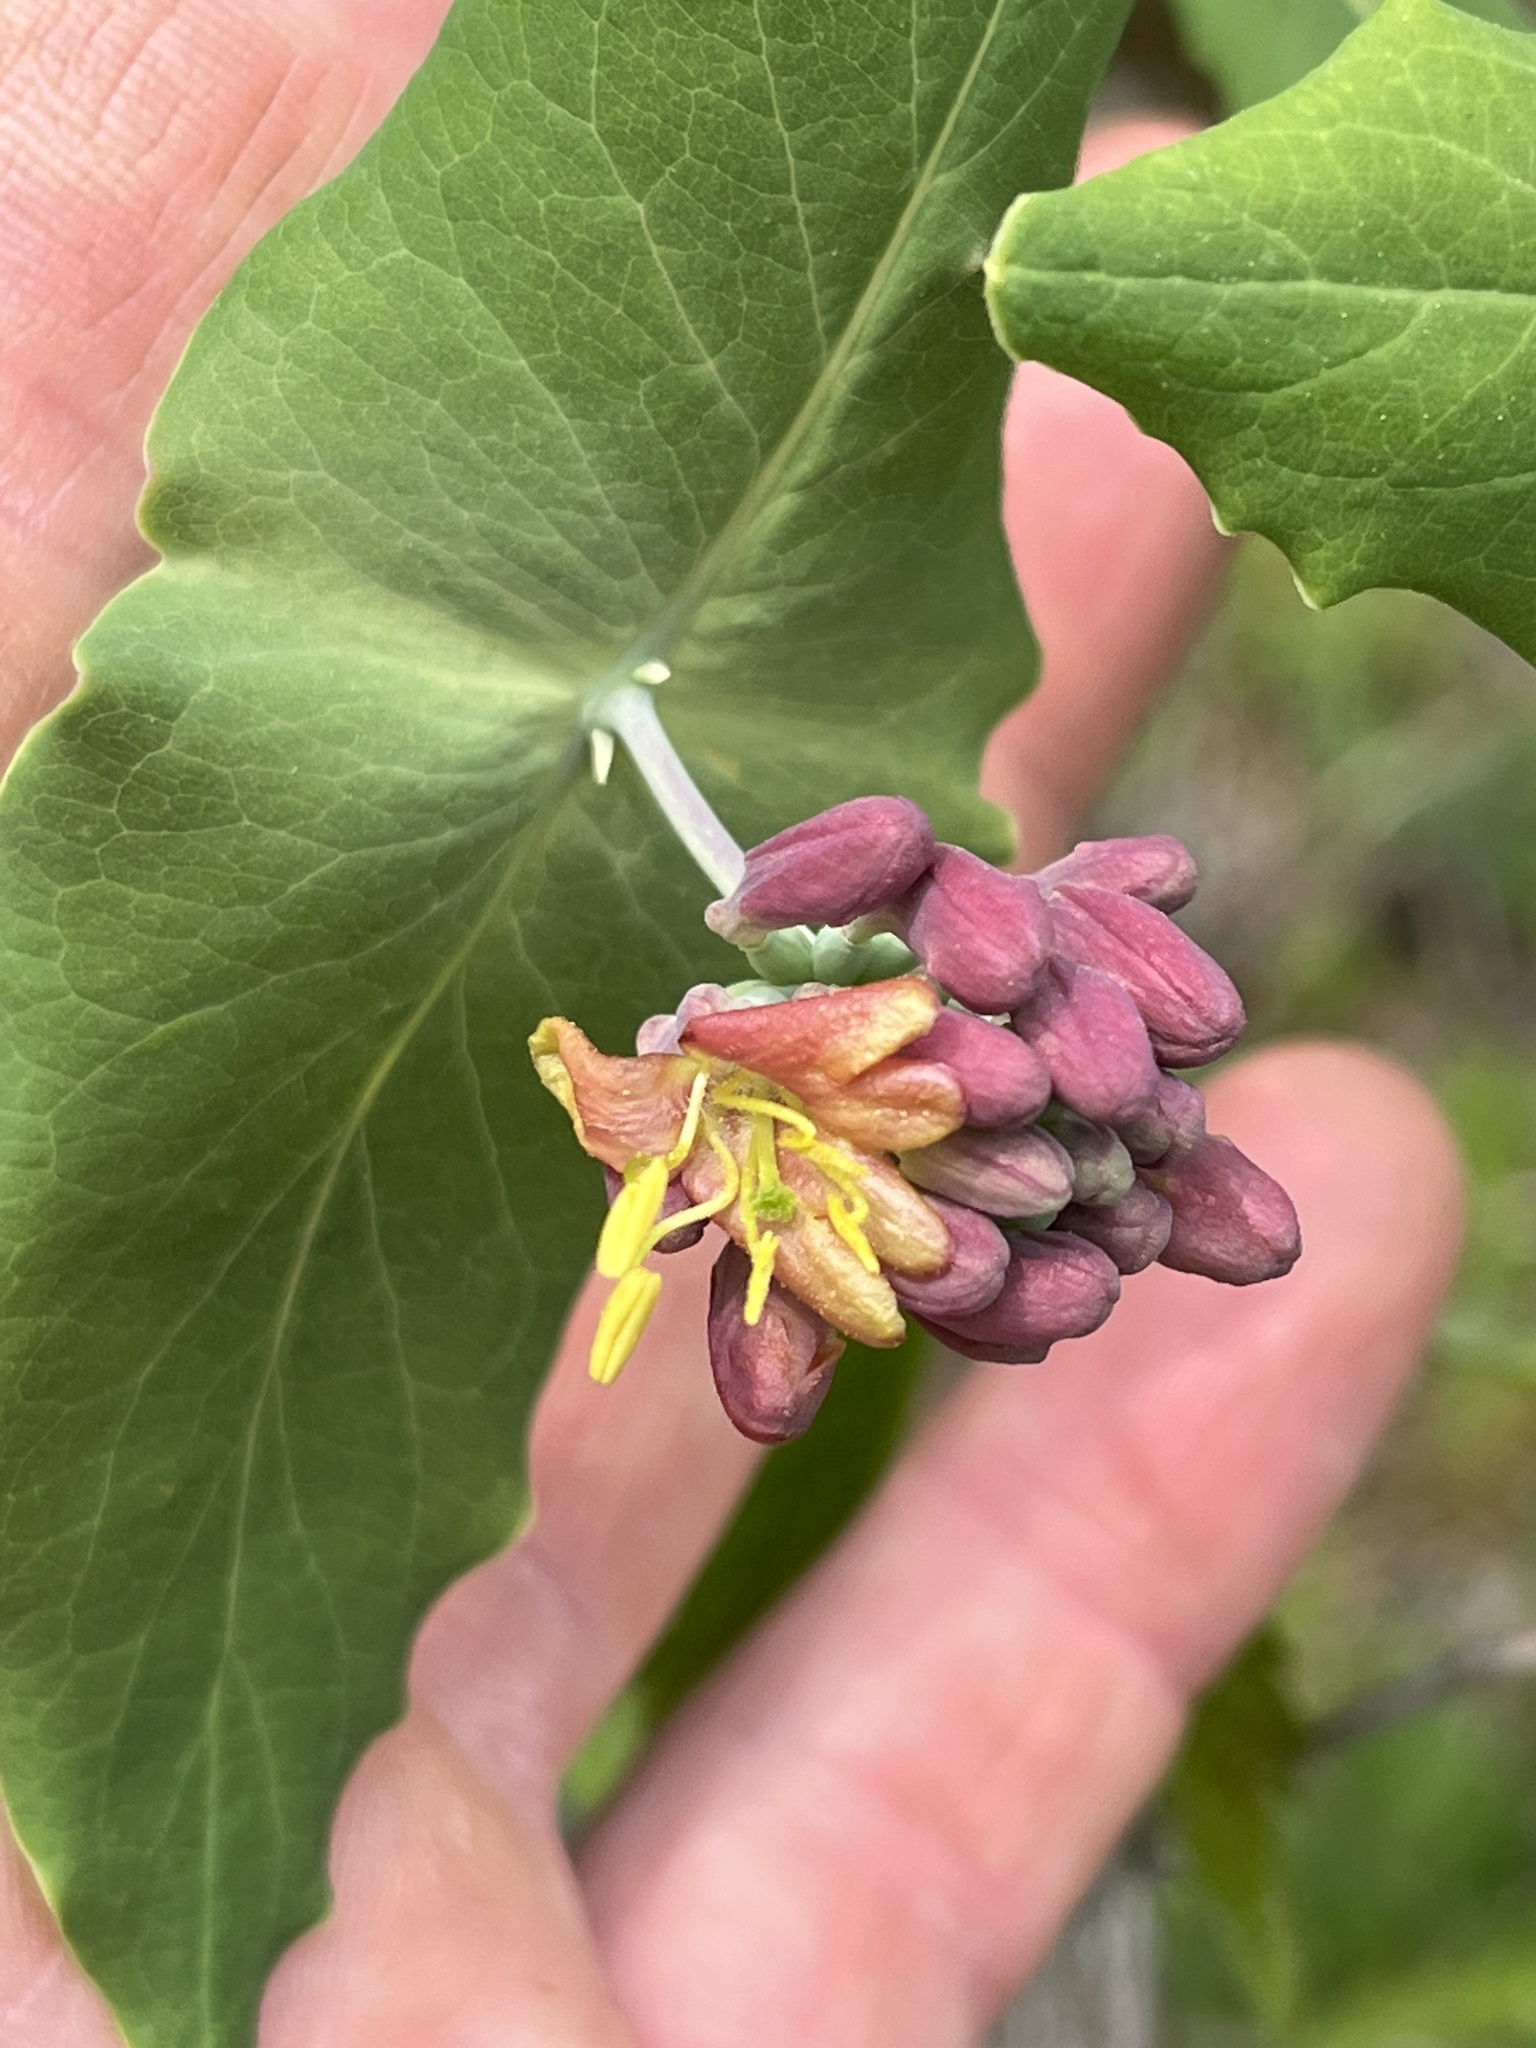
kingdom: Plantae
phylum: Tracheophyta
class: Magnoliopsida
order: Dipsacales
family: Caprifoliaceae
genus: Lonicera
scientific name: Lonicera dioica
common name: Limber honeysuckle
